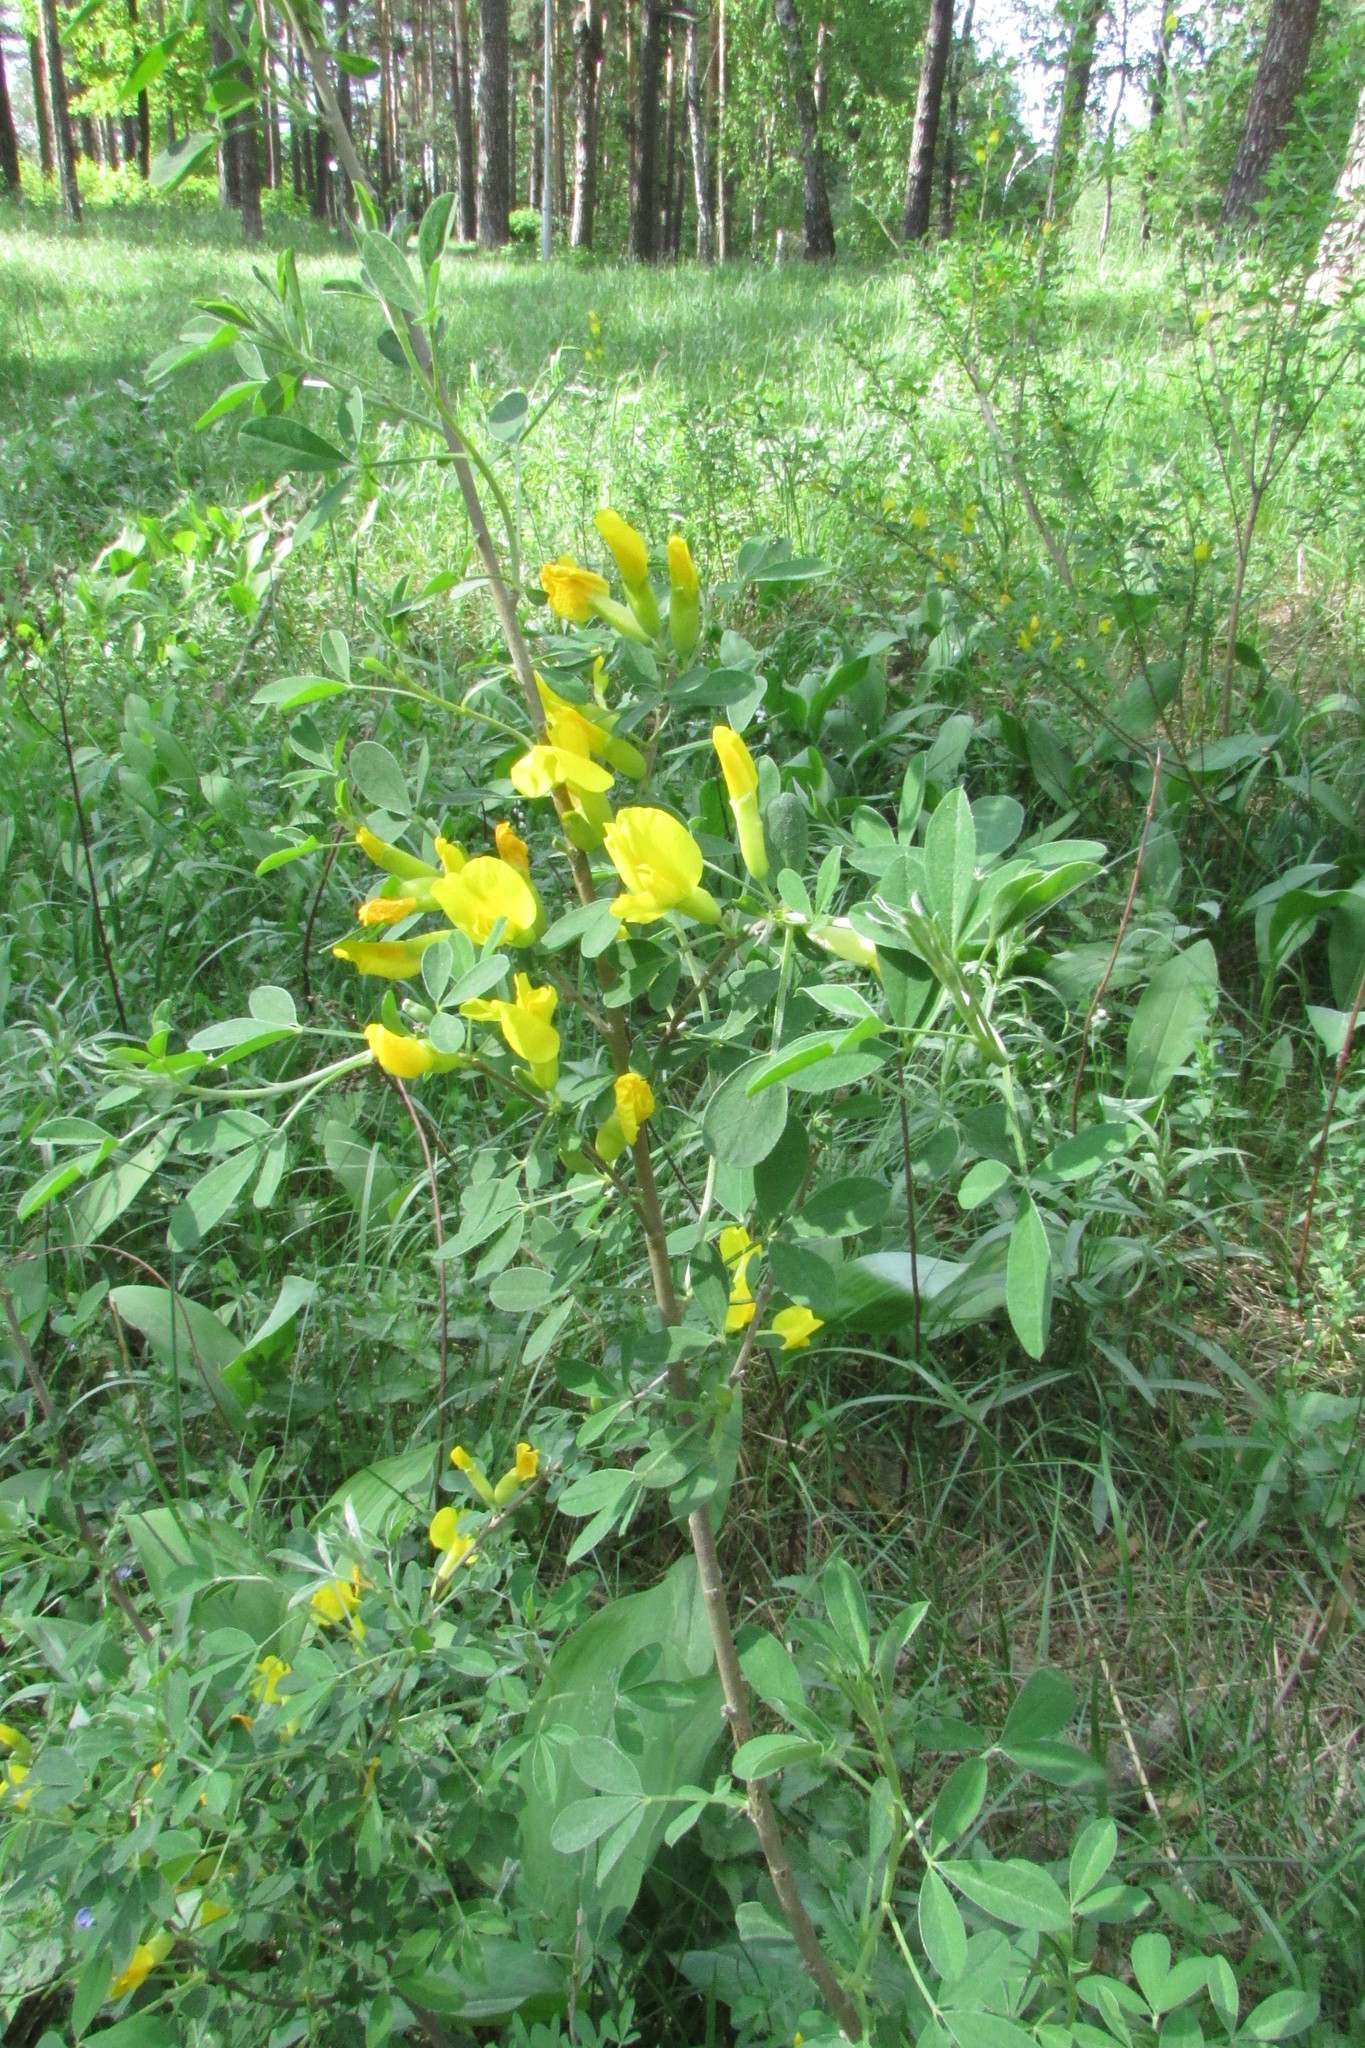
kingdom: Plantae
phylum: Tracheophyta
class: Magnoliopsida
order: Fabales
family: Fabaceae
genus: Chamaecytisus
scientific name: Chamaecytisus ruthenicus
